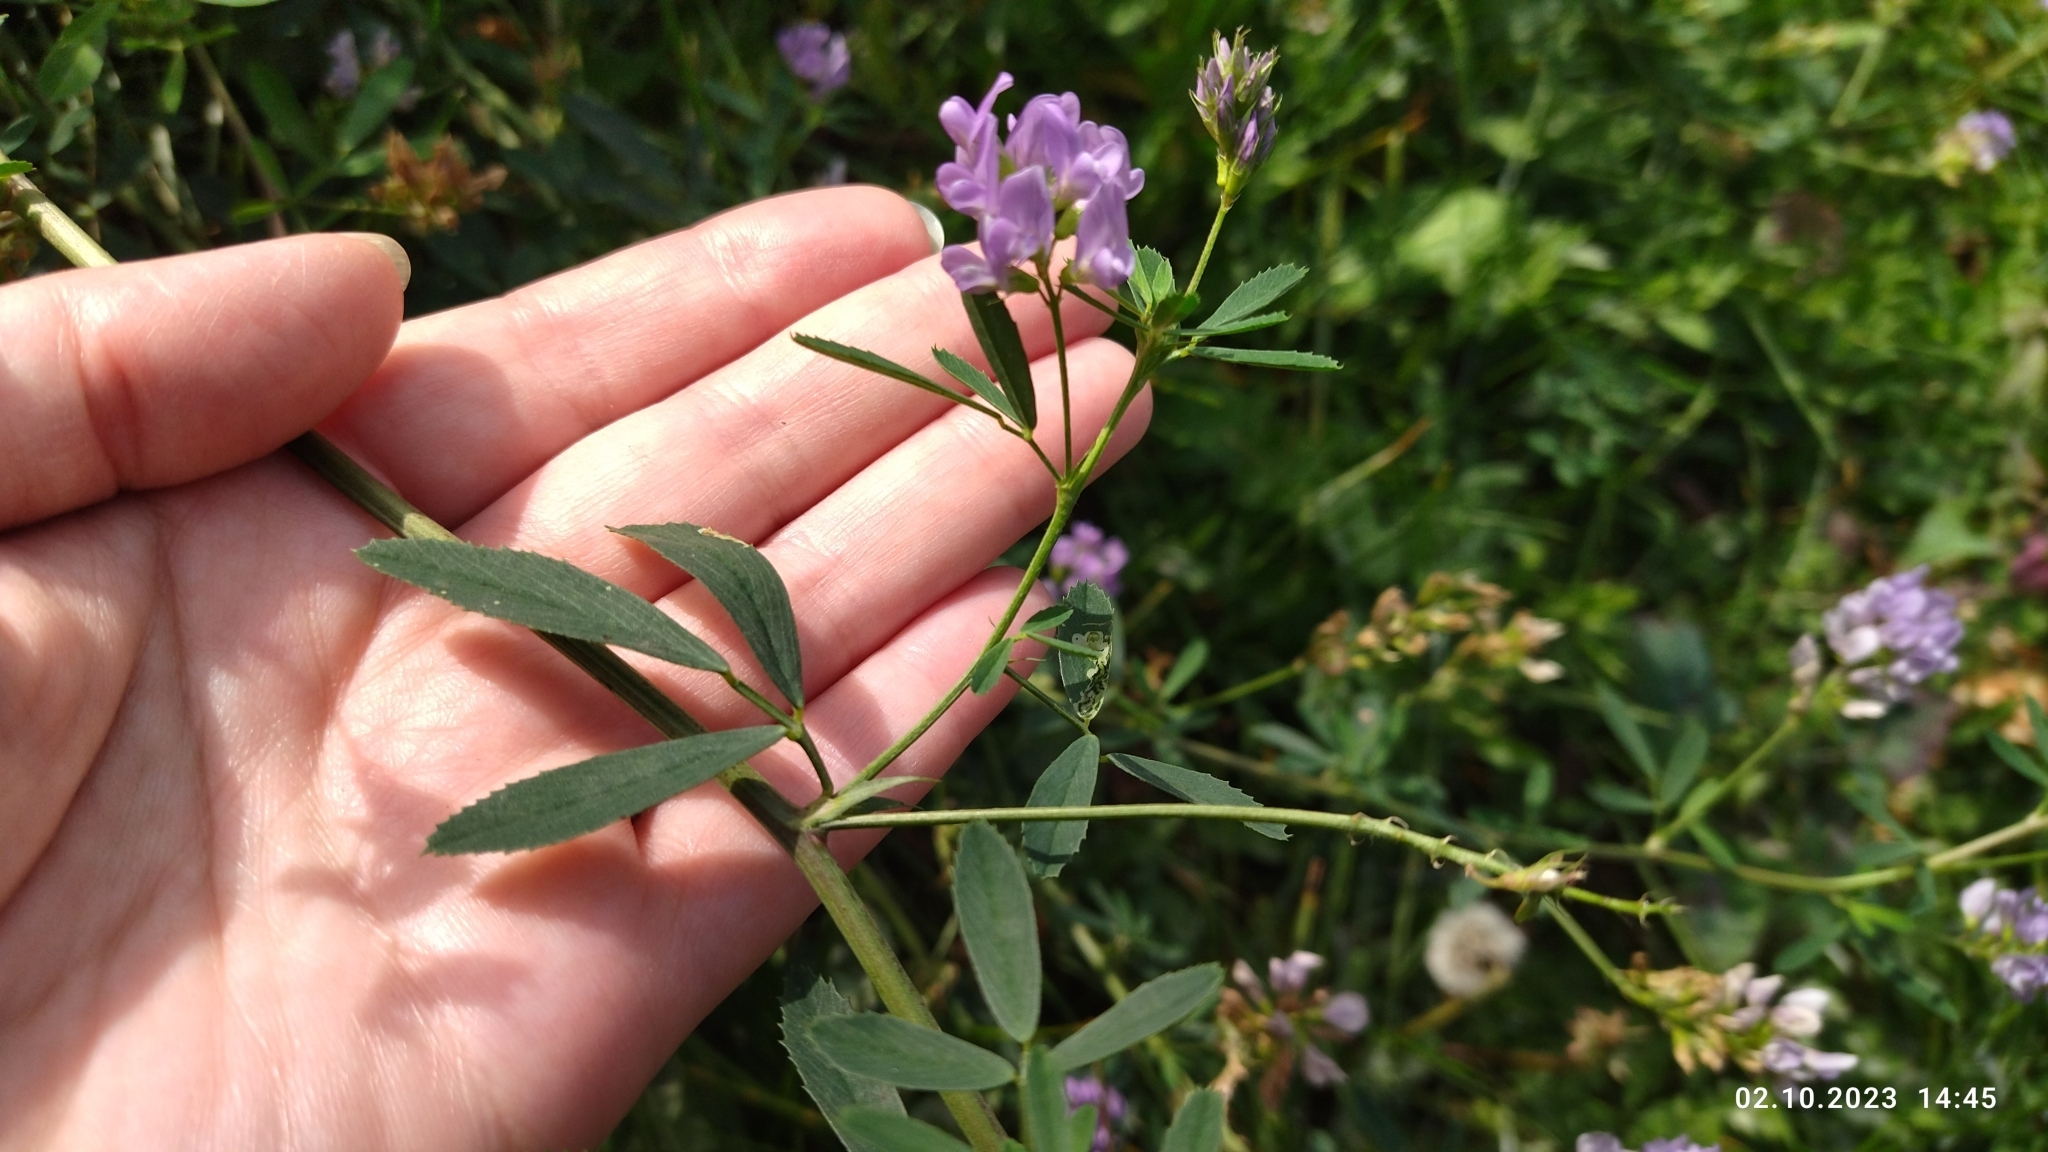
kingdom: Plantae
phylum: Tracheophyta
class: Magnoliopsida
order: Fabales
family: Fabaceae
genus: Medicago
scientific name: Medicago varia
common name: Sand lucerne
